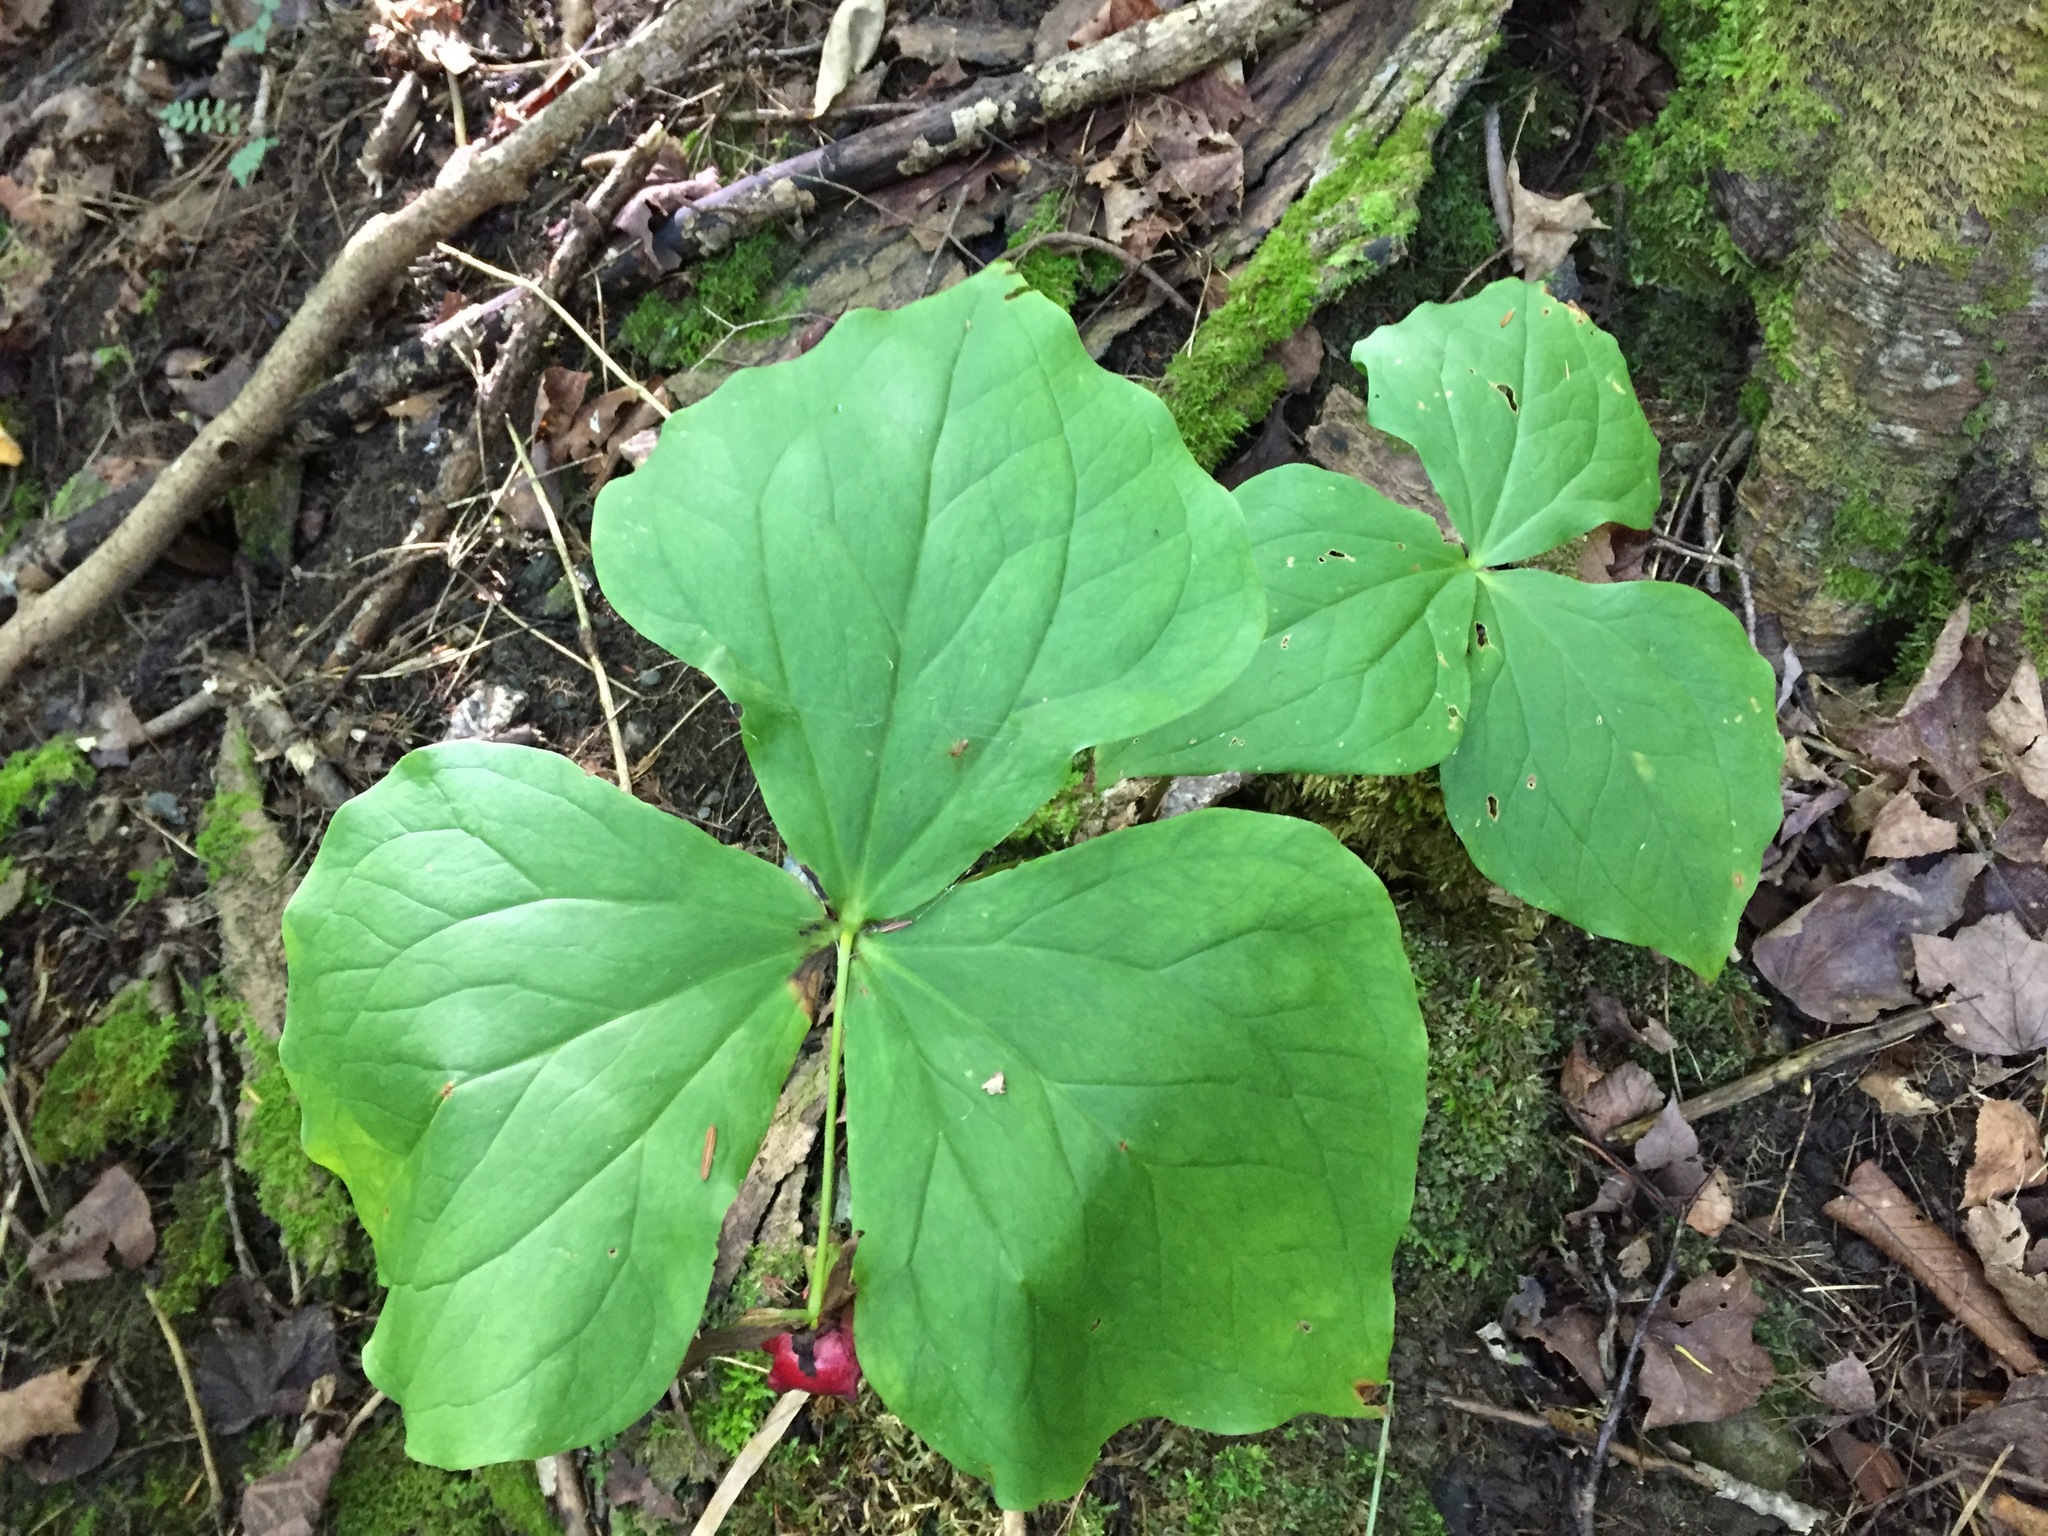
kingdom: Plantae
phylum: Tracheophyta
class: Liliopsida
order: Liliales
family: Melanthiaceae
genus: Trillium
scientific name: Trillium erectum
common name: Purple trillium
